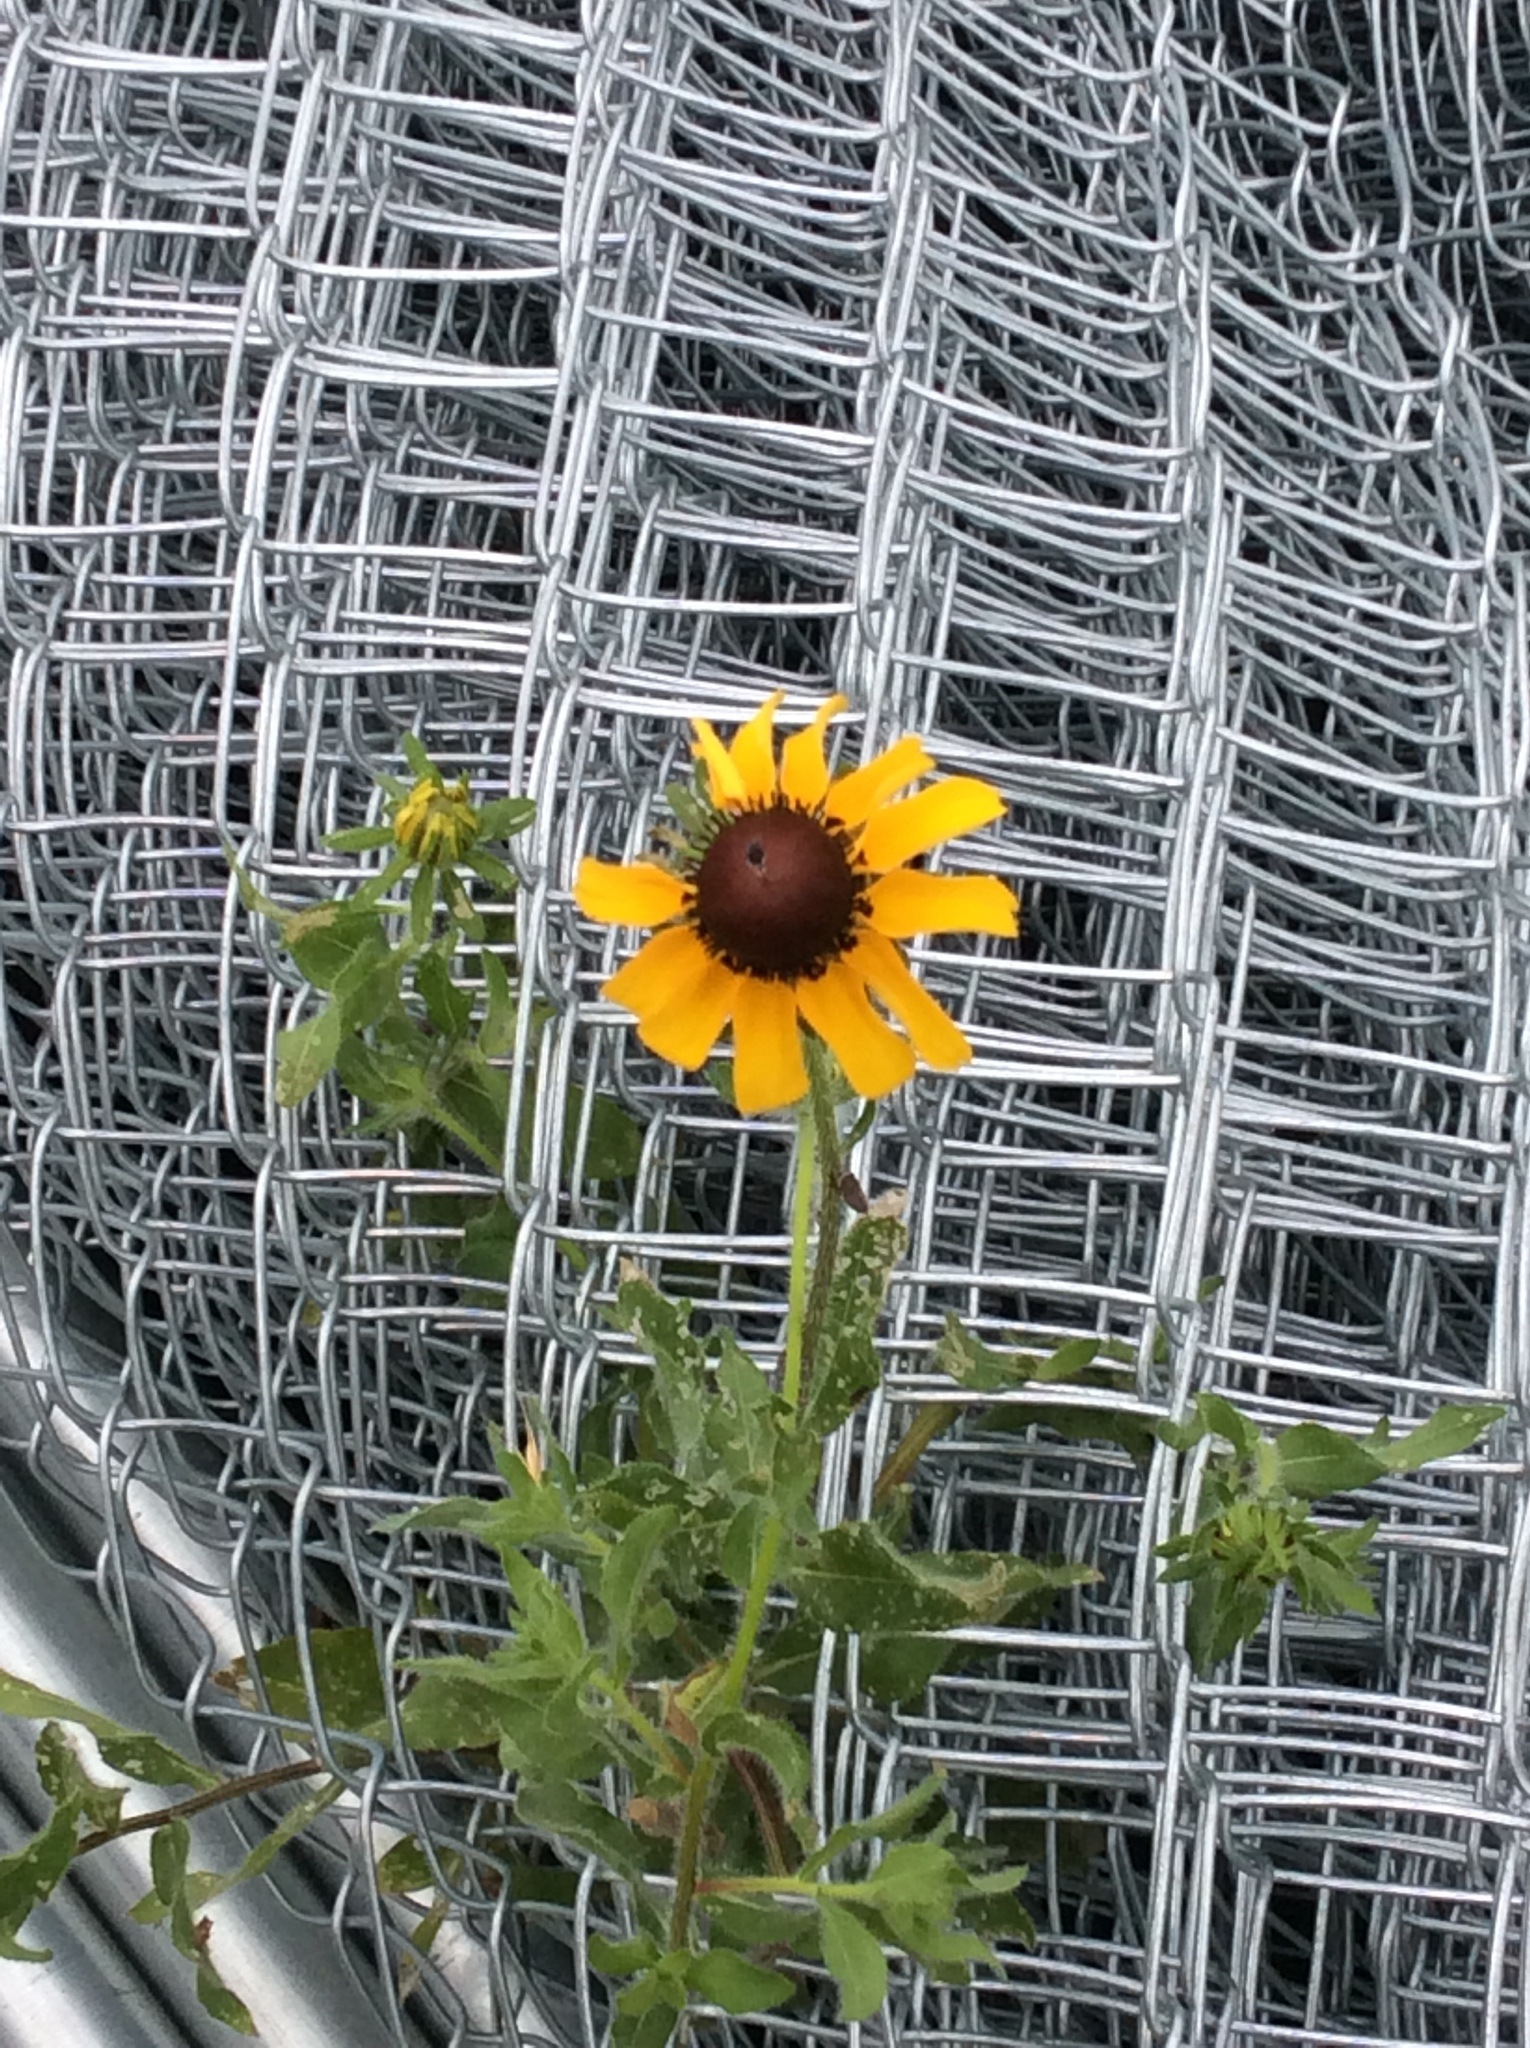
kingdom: Plantae
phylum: Tracheophyta
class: Magnoliopsida
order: Asterales
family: Asteraceae
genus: Rudbeckia
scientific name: Rudbeckia hirta
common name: Black-eyed-susan
